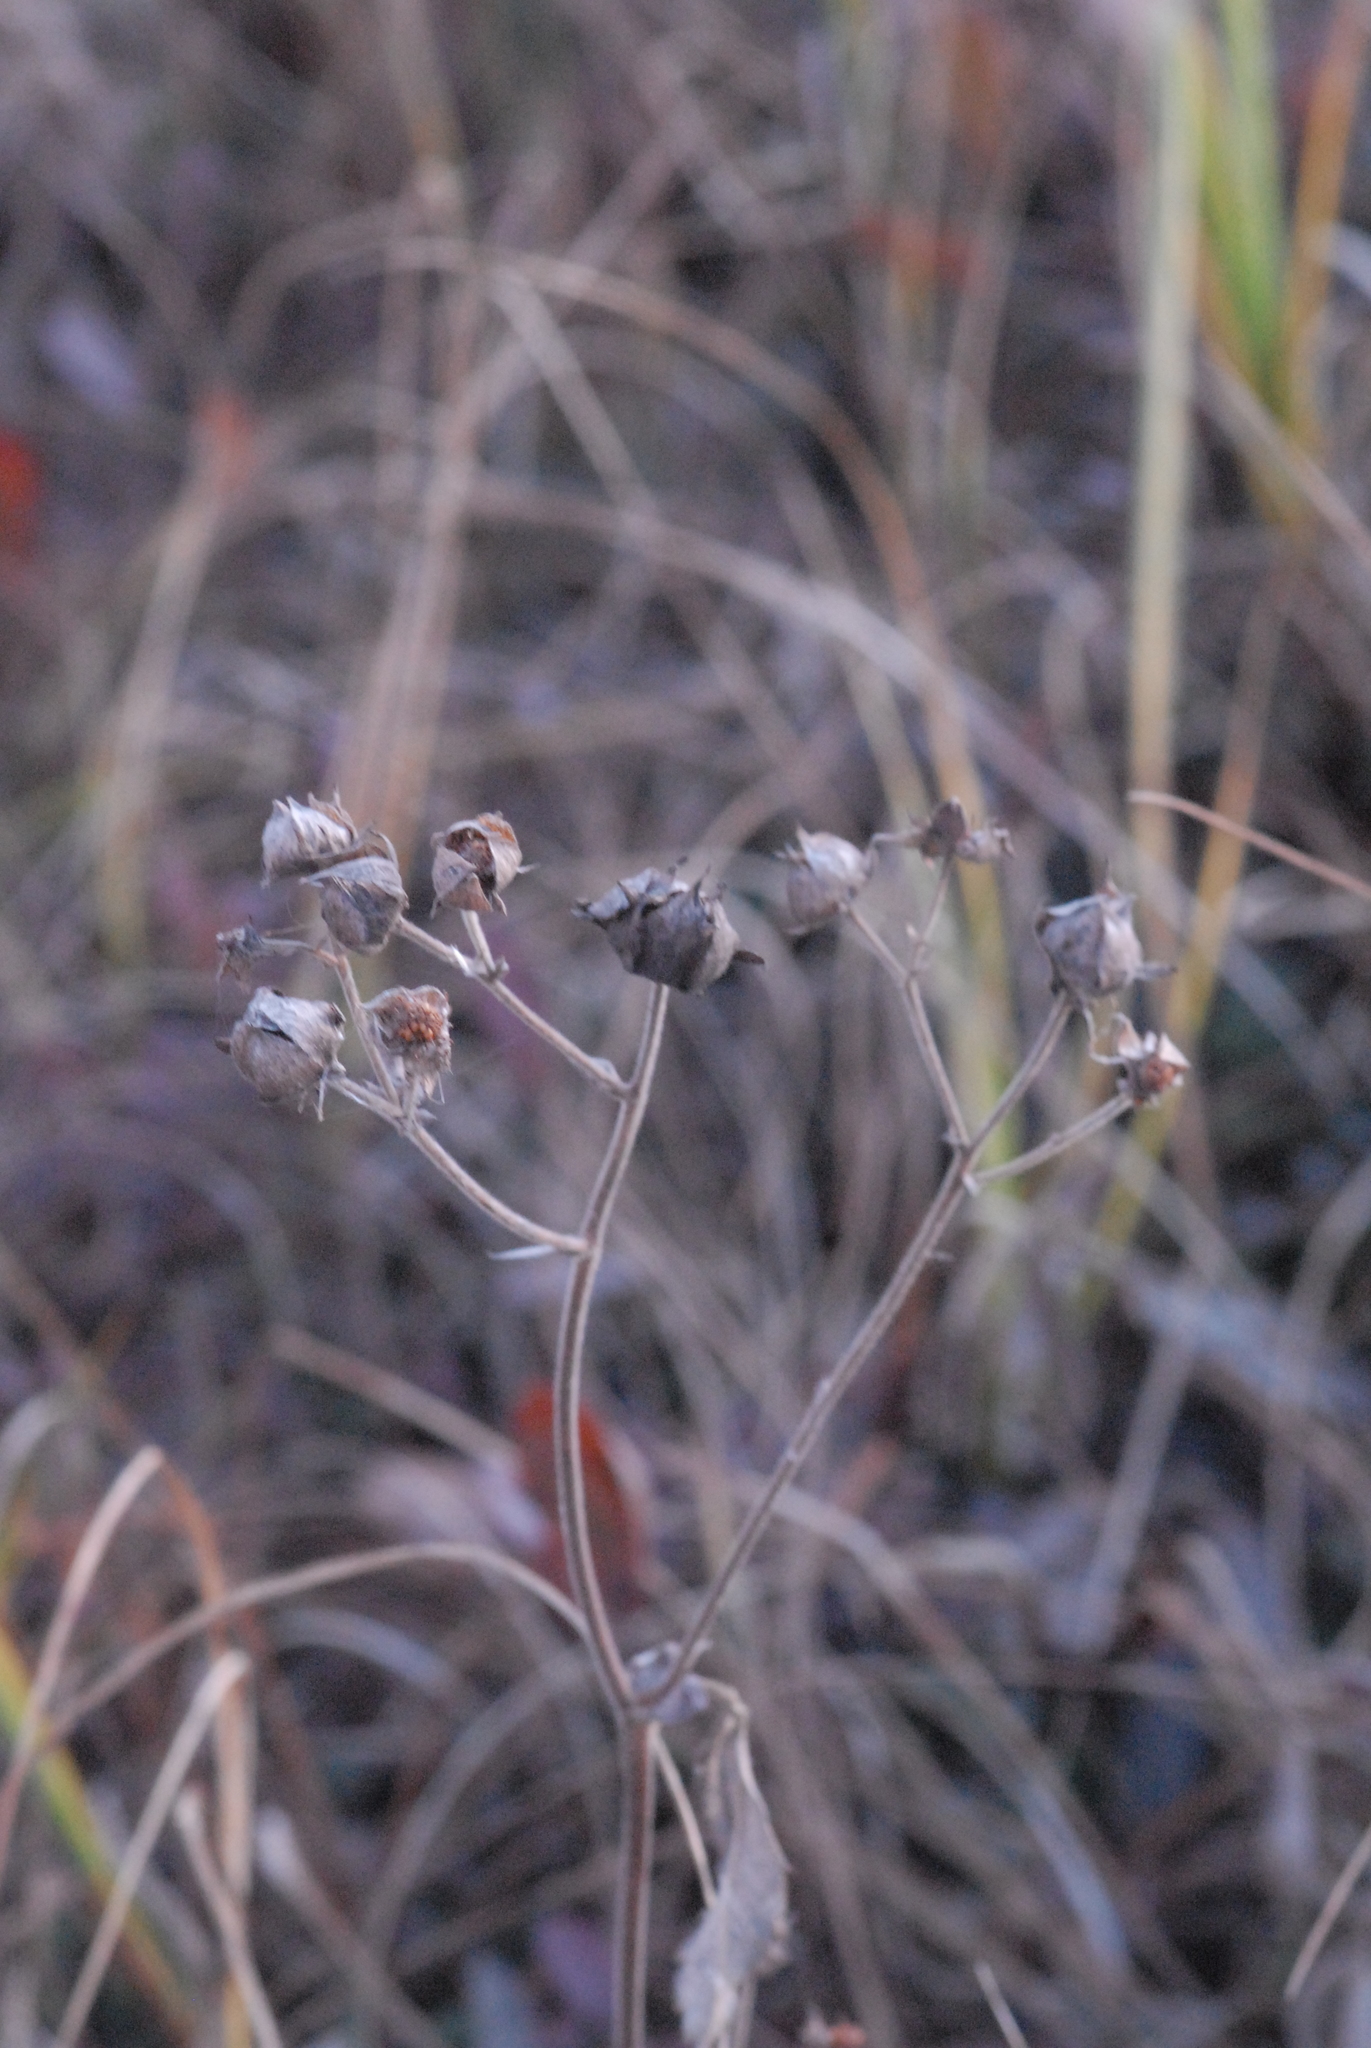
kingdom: Plantae
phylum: Tracheophyta
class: Magnoliopsida
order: Rosales
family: Rosaceae
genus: Comarum
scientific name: Comarum palustre
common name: Marsh cinquefoil
